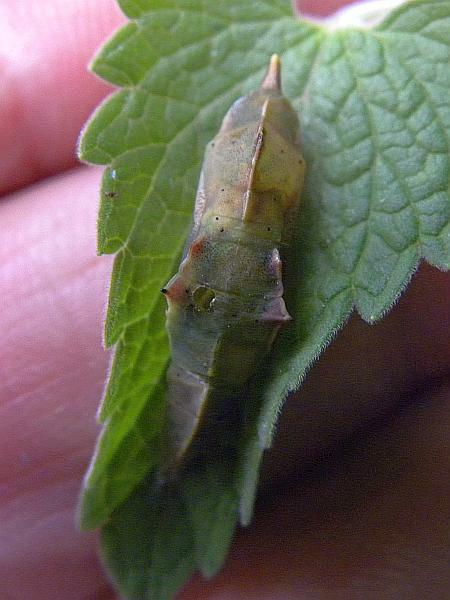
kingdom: Animalia
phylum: Arthropoda
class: Insecta
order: Lepidoptera
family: Pieridae
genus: Pieris
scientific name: Pieris rapae
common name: Small white
